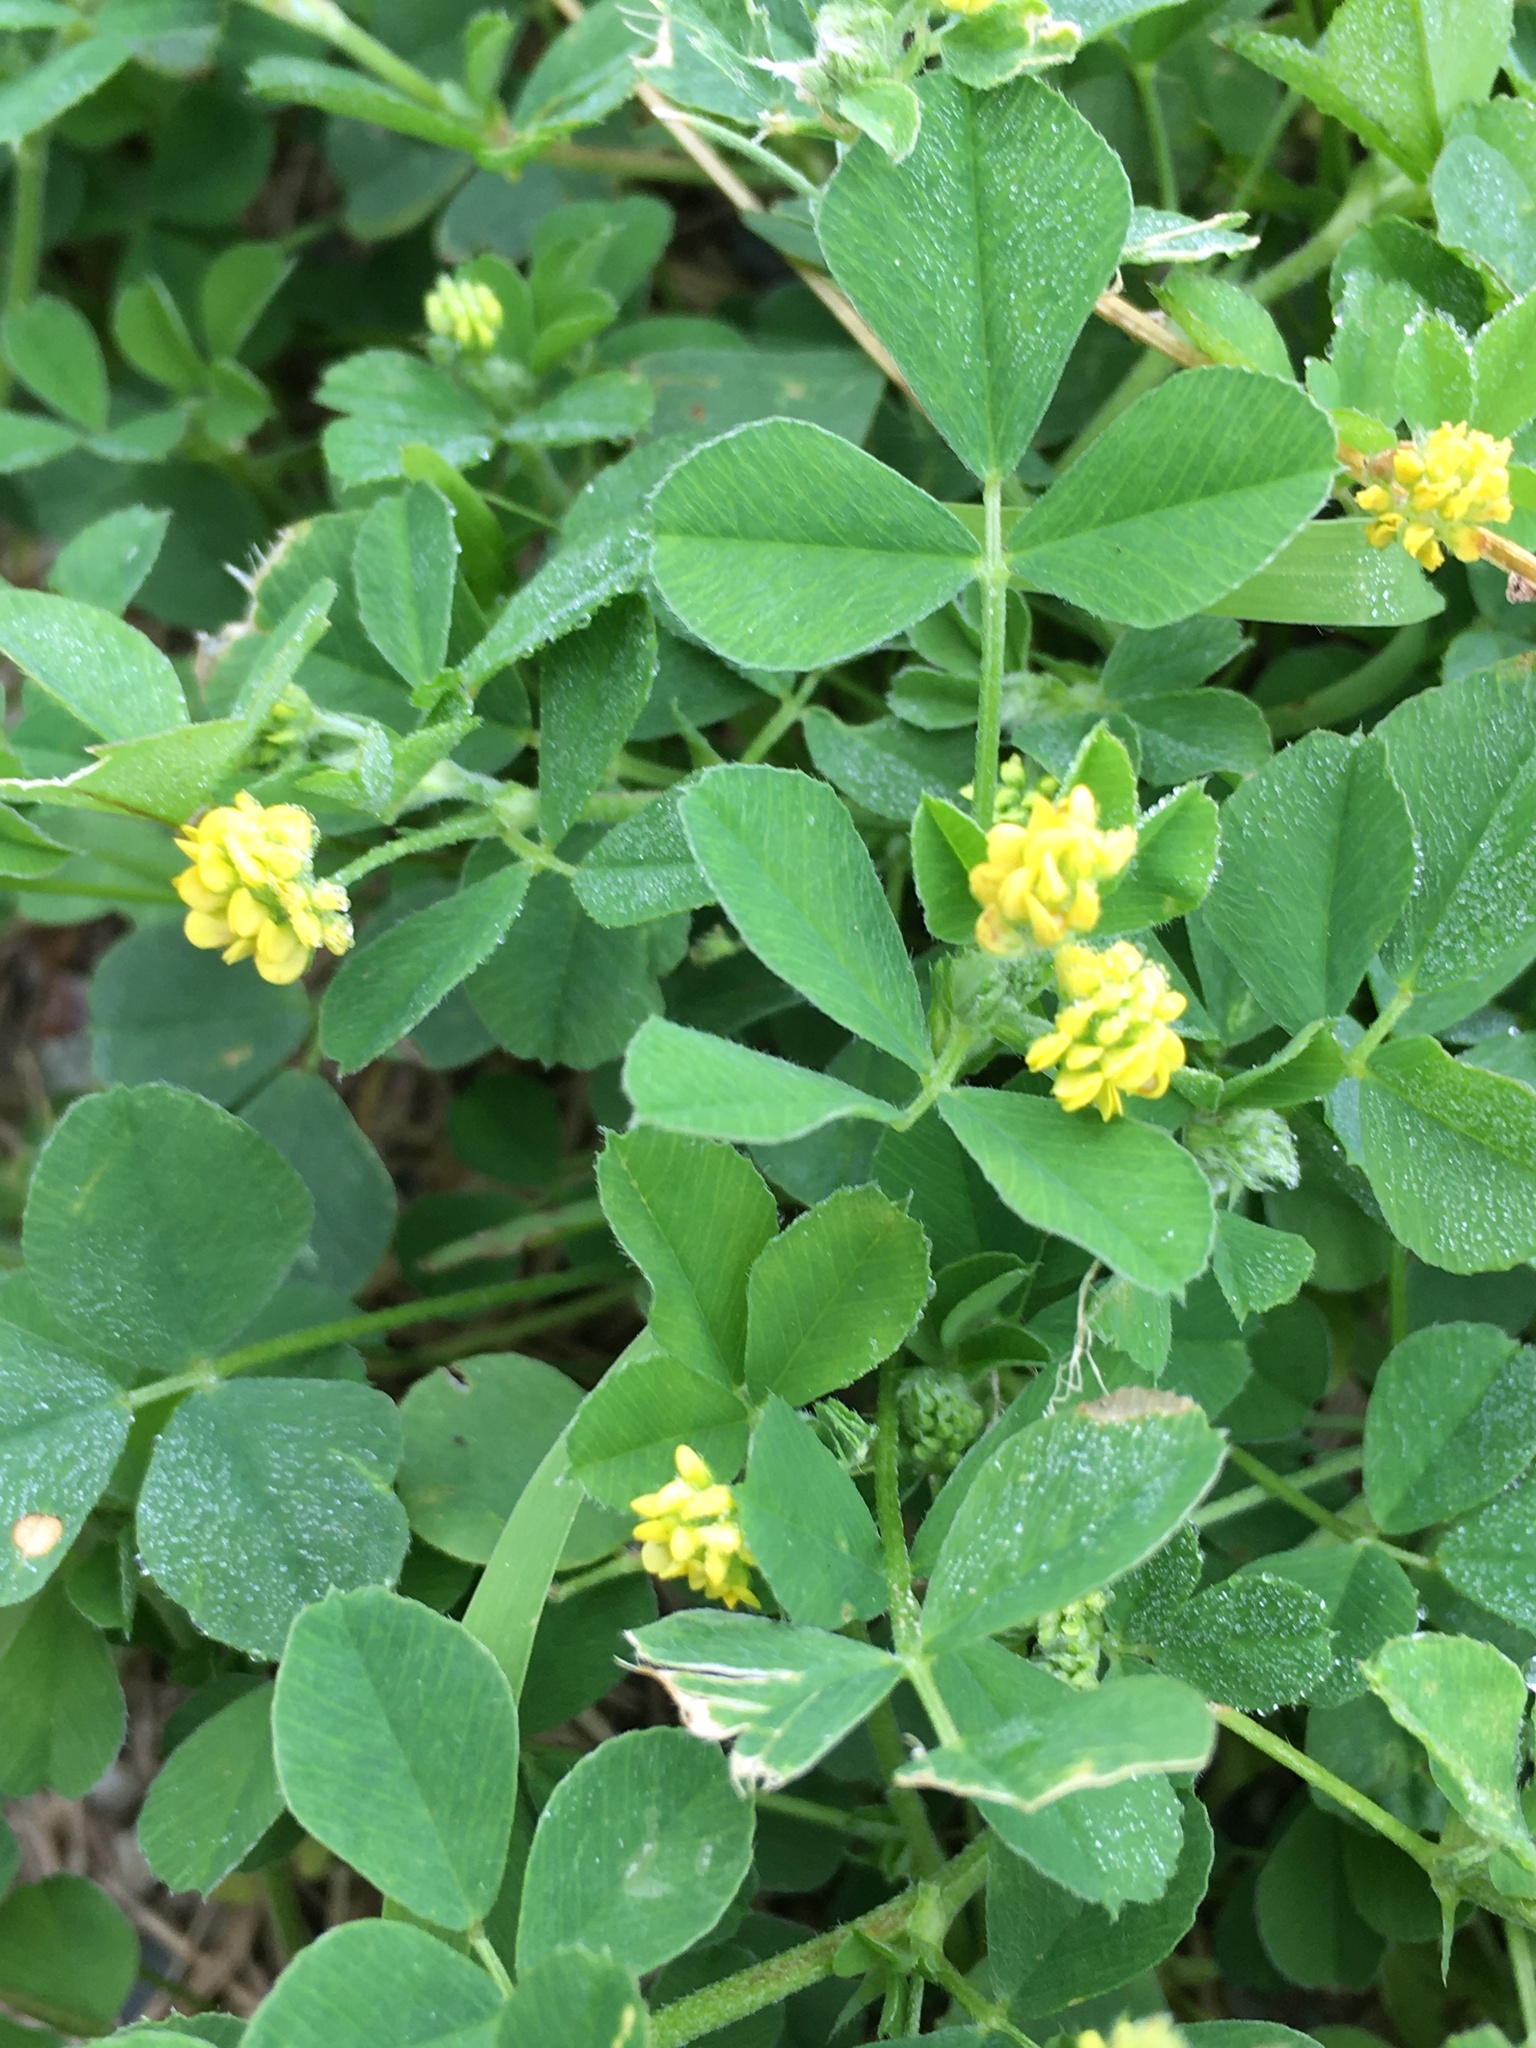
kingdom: Plantae
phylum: Tracheophyta
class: Magnoliopsida
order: Fabales
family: Fabaceae
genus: Medicago
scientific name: Medicago lupulina
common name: Black medick
